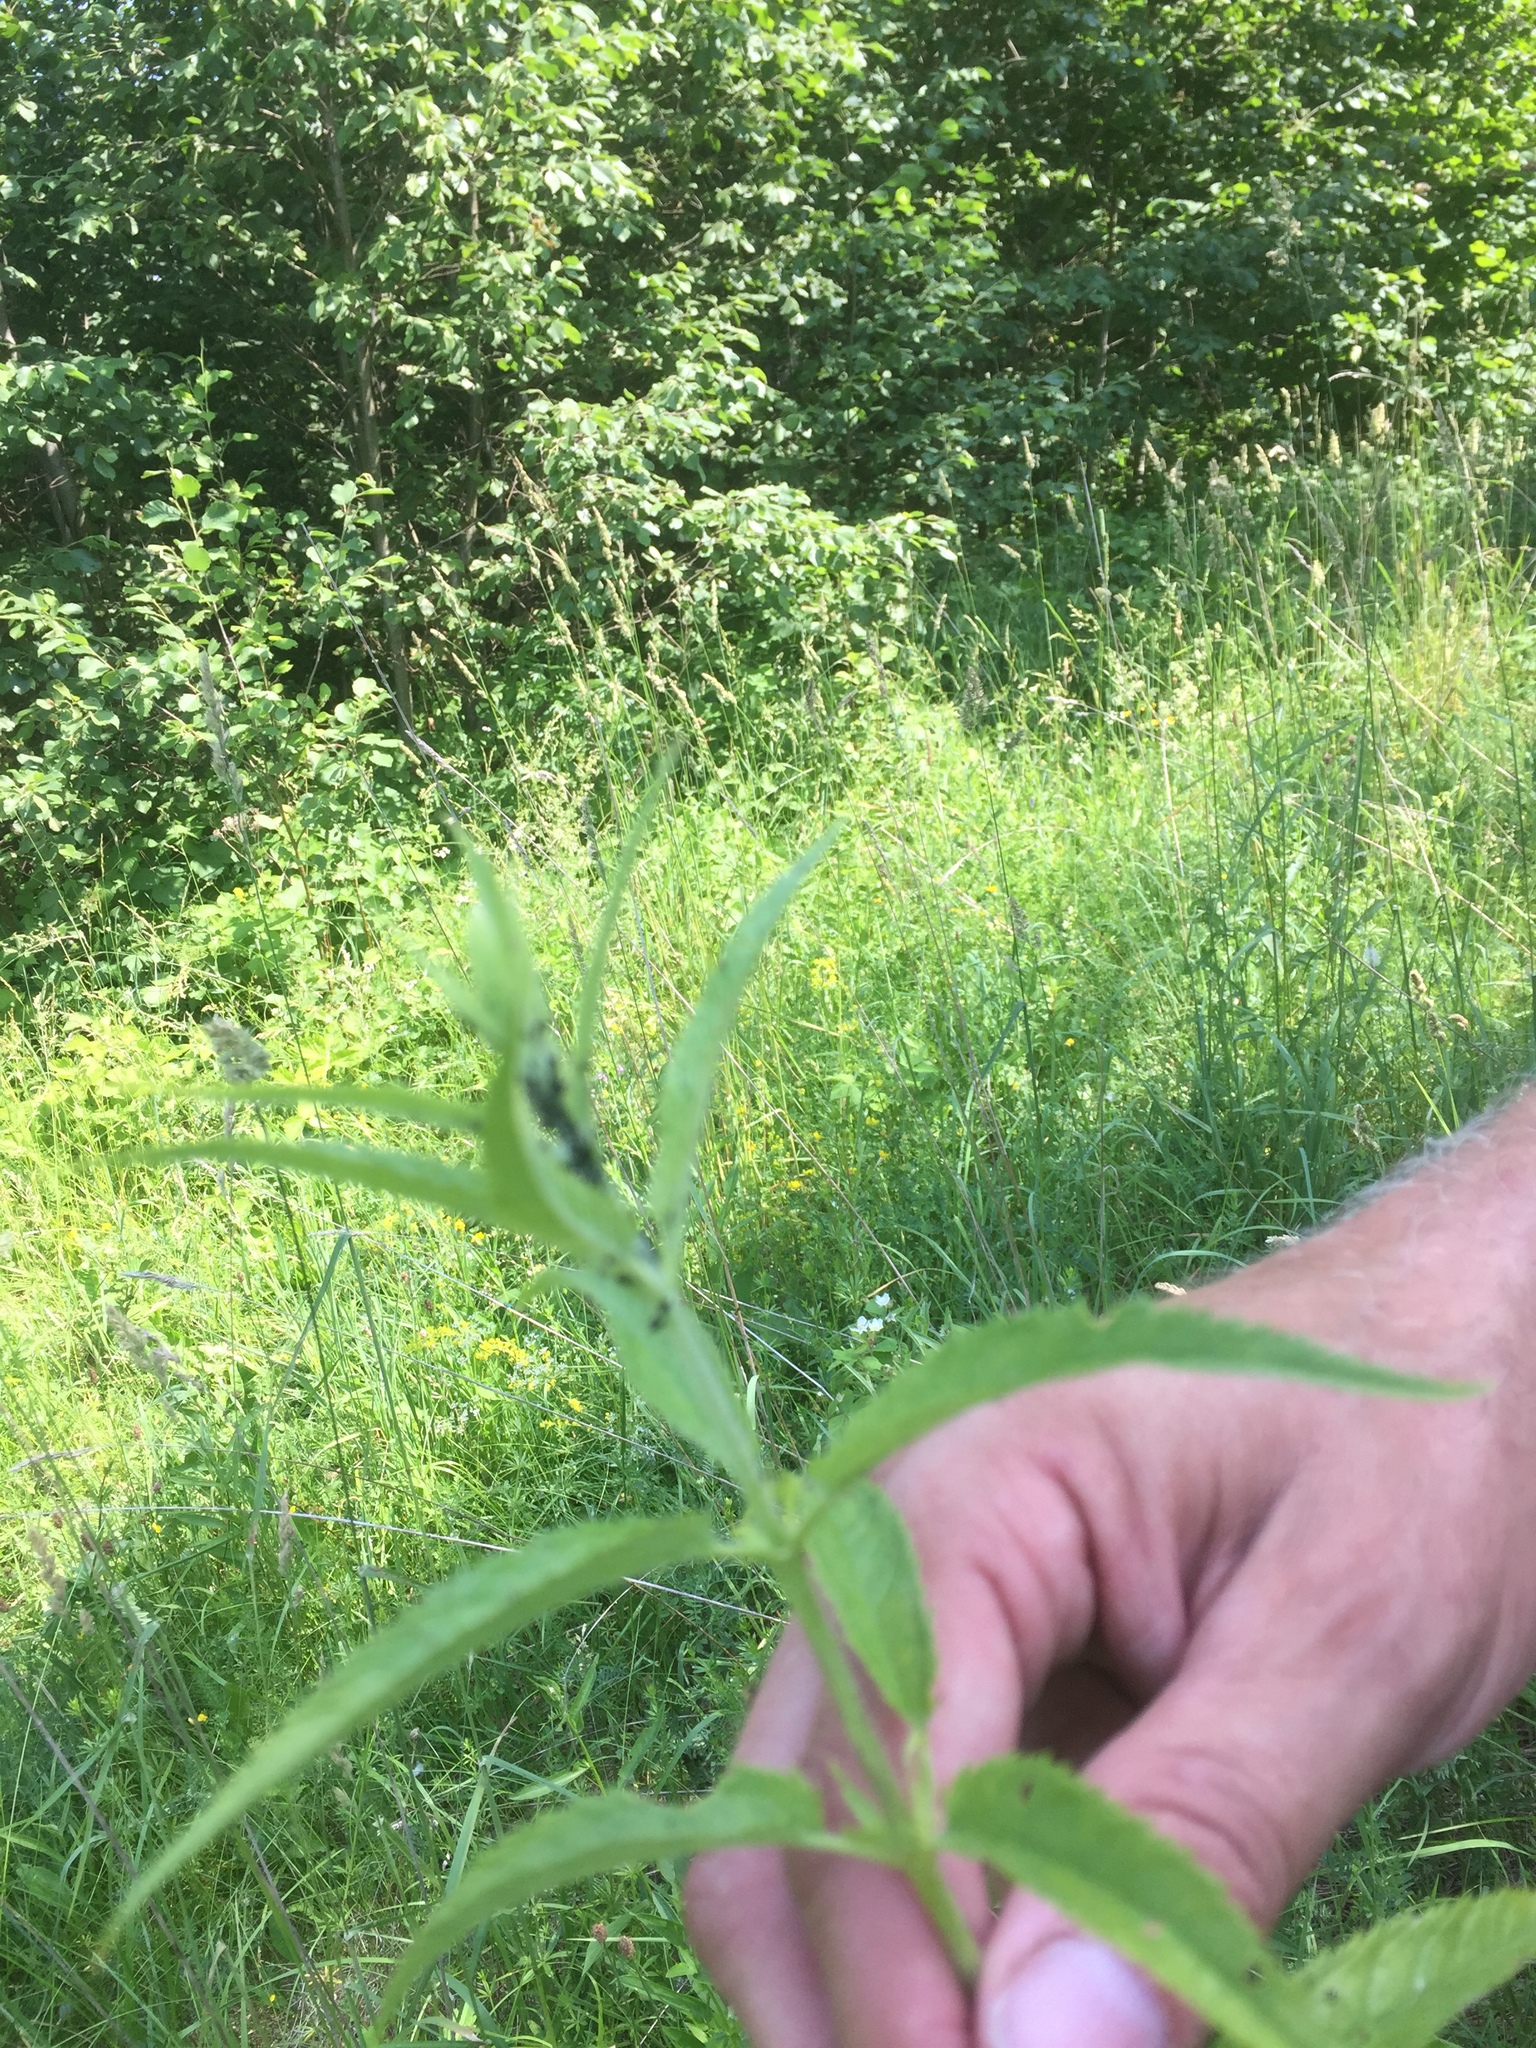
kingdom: Plantae
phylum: Tracheophyta
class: Magnoliopsida
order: Lamiales
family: Plantaginaceae
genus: Veronica
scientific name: Veronica longifolia
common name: Garden speedwell
